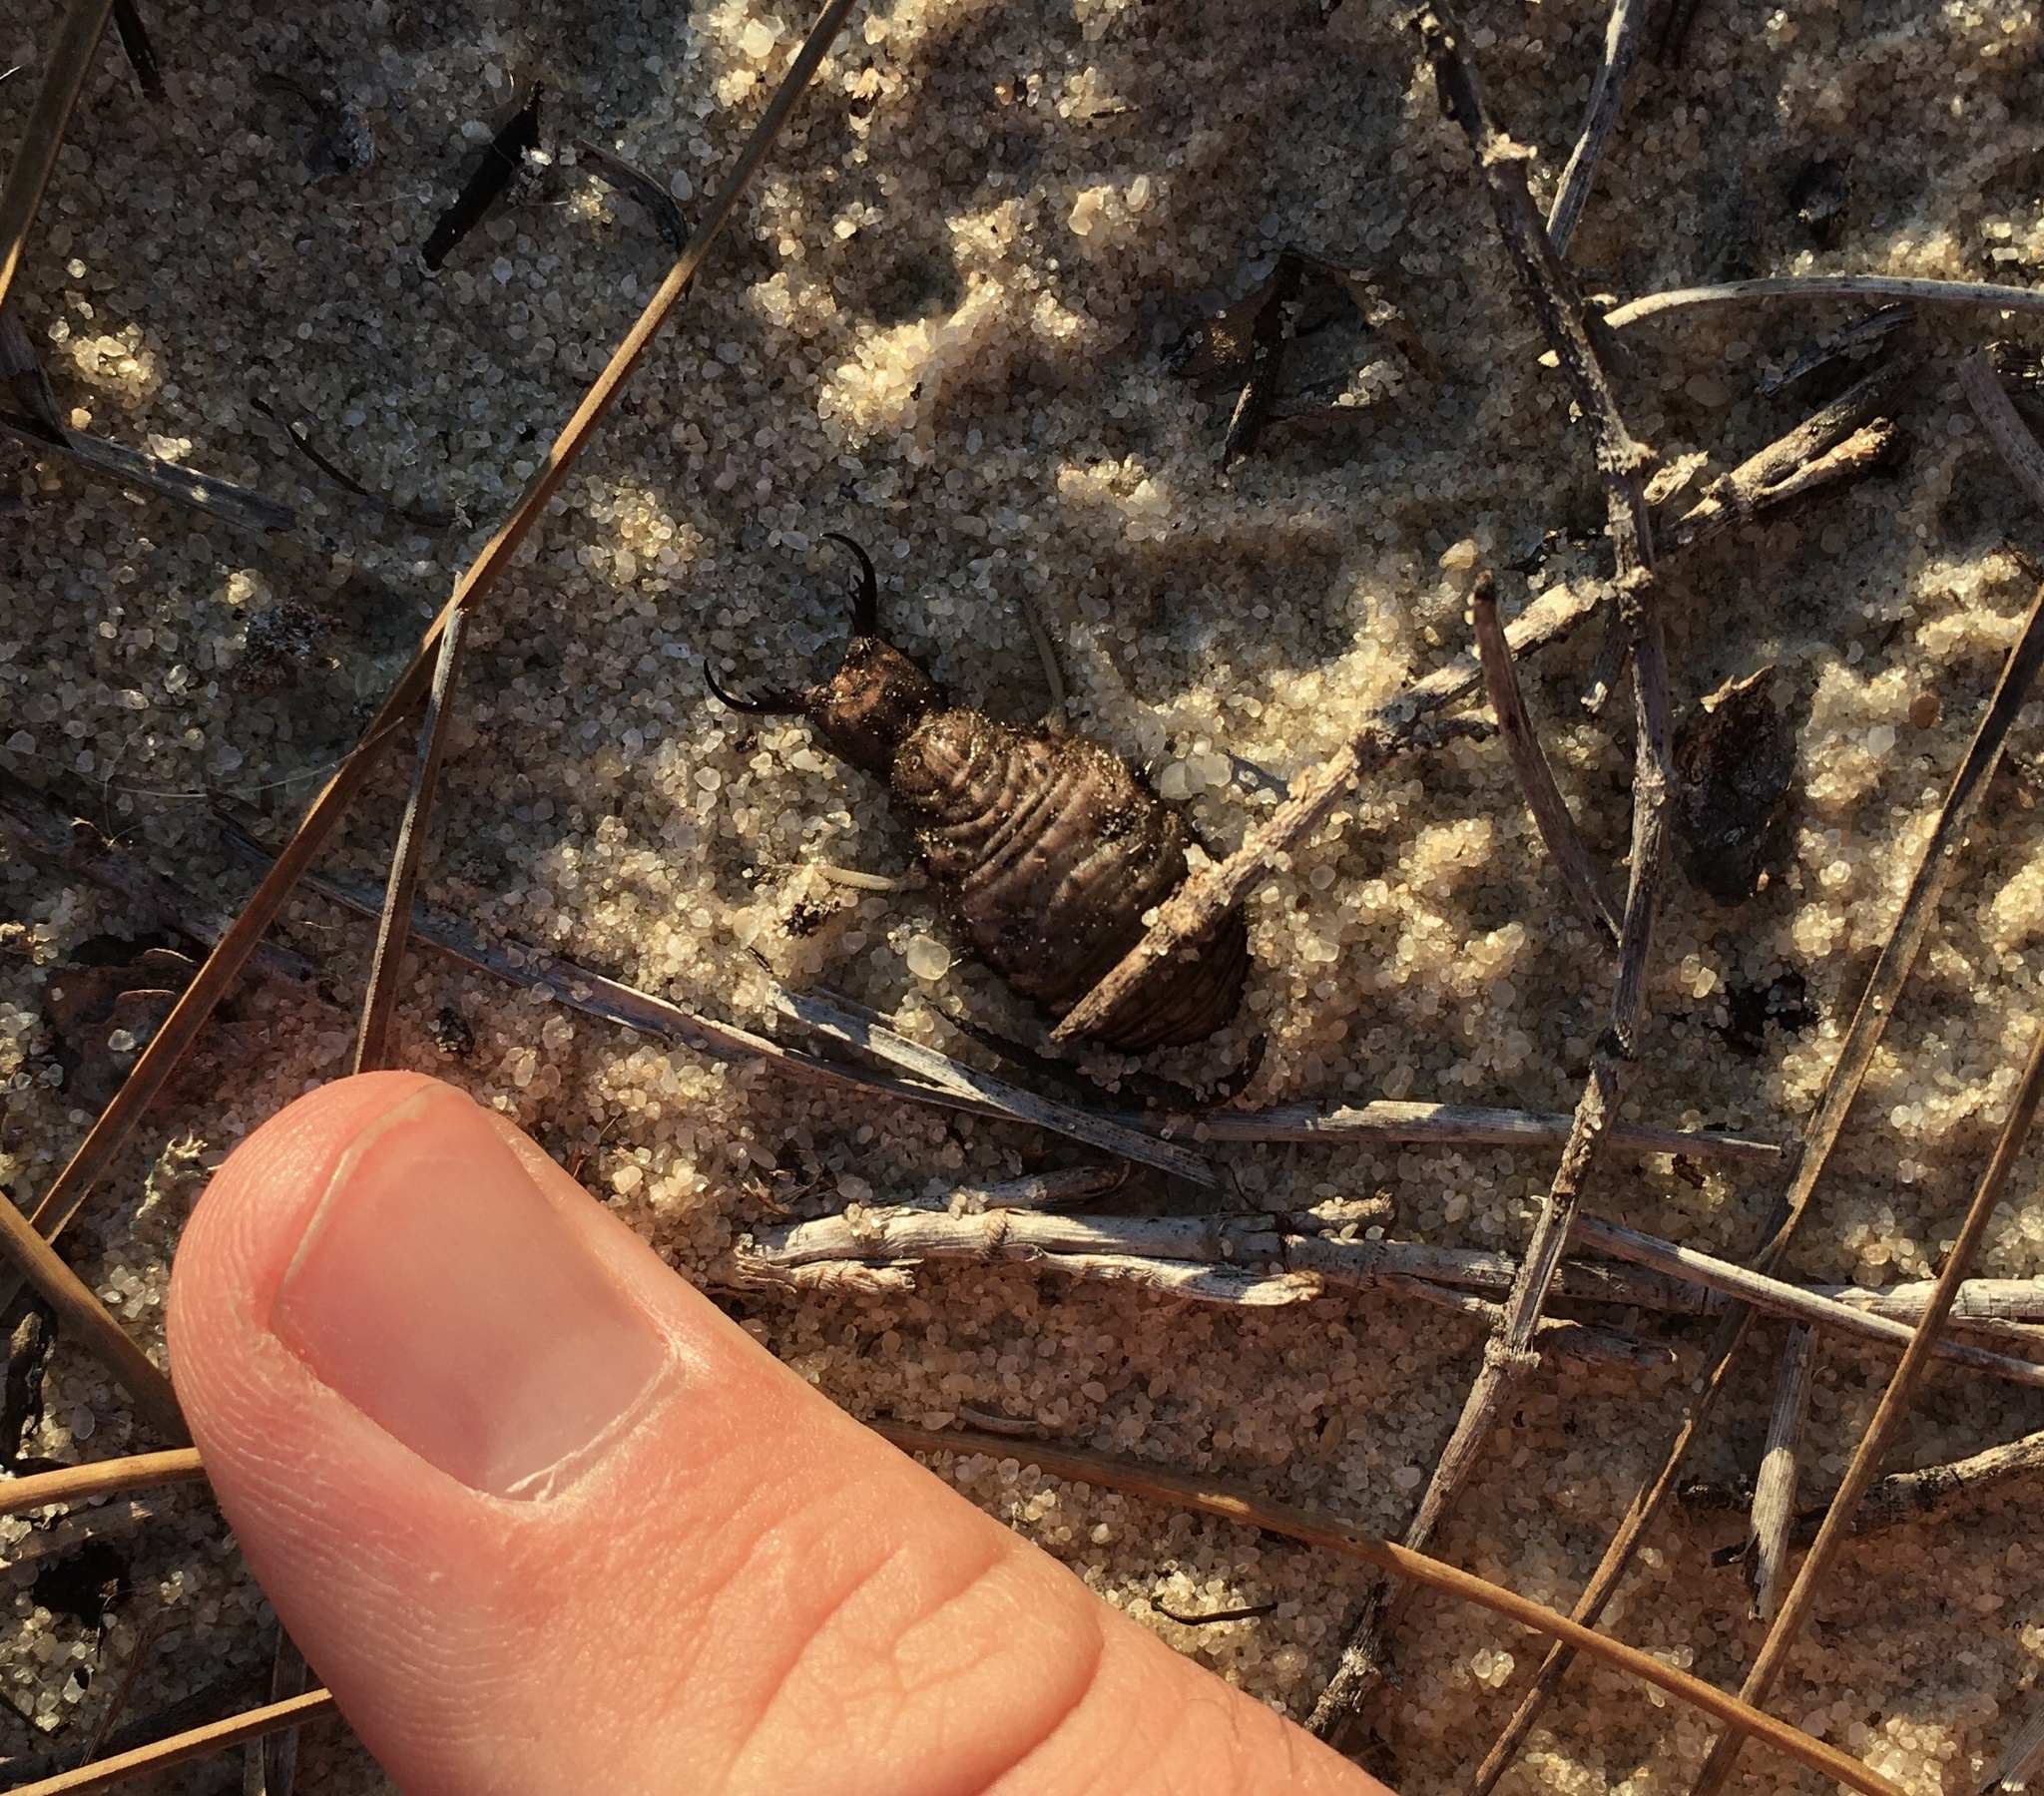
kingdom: Animalia
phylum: Arthropoda
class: Insecta
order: Neuroptera
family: Myrmeleontidae
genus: Vella
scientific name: Vella americana
